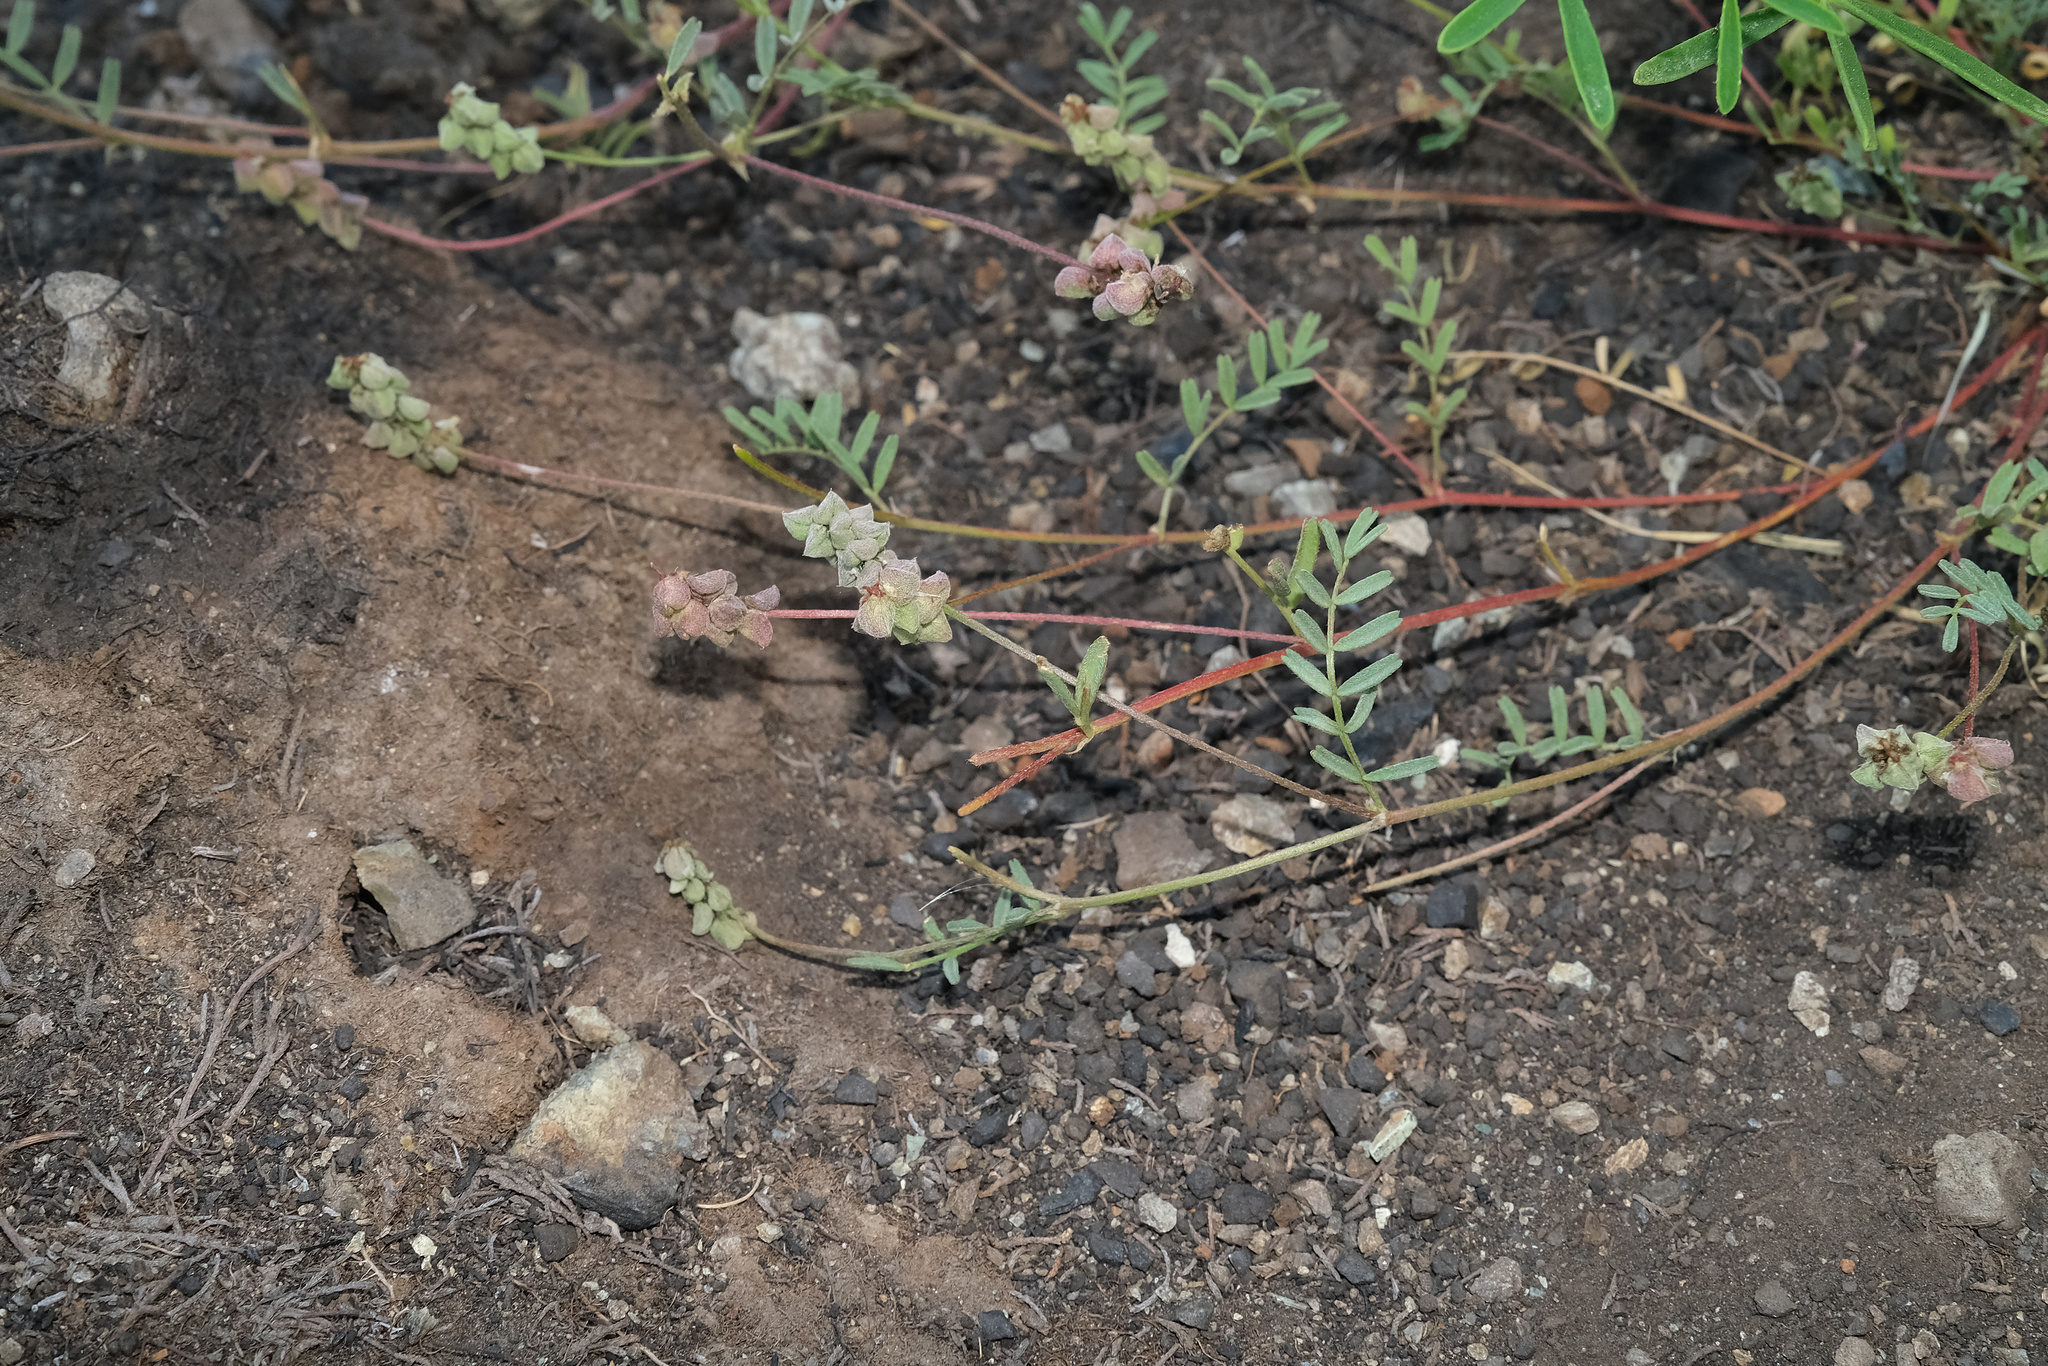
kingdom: Plantae
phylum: Tracheophyta
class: Magnoliopsida
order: Fabales
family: Fabaceae
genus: Astragalus
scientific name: Astragalus gambelianus
